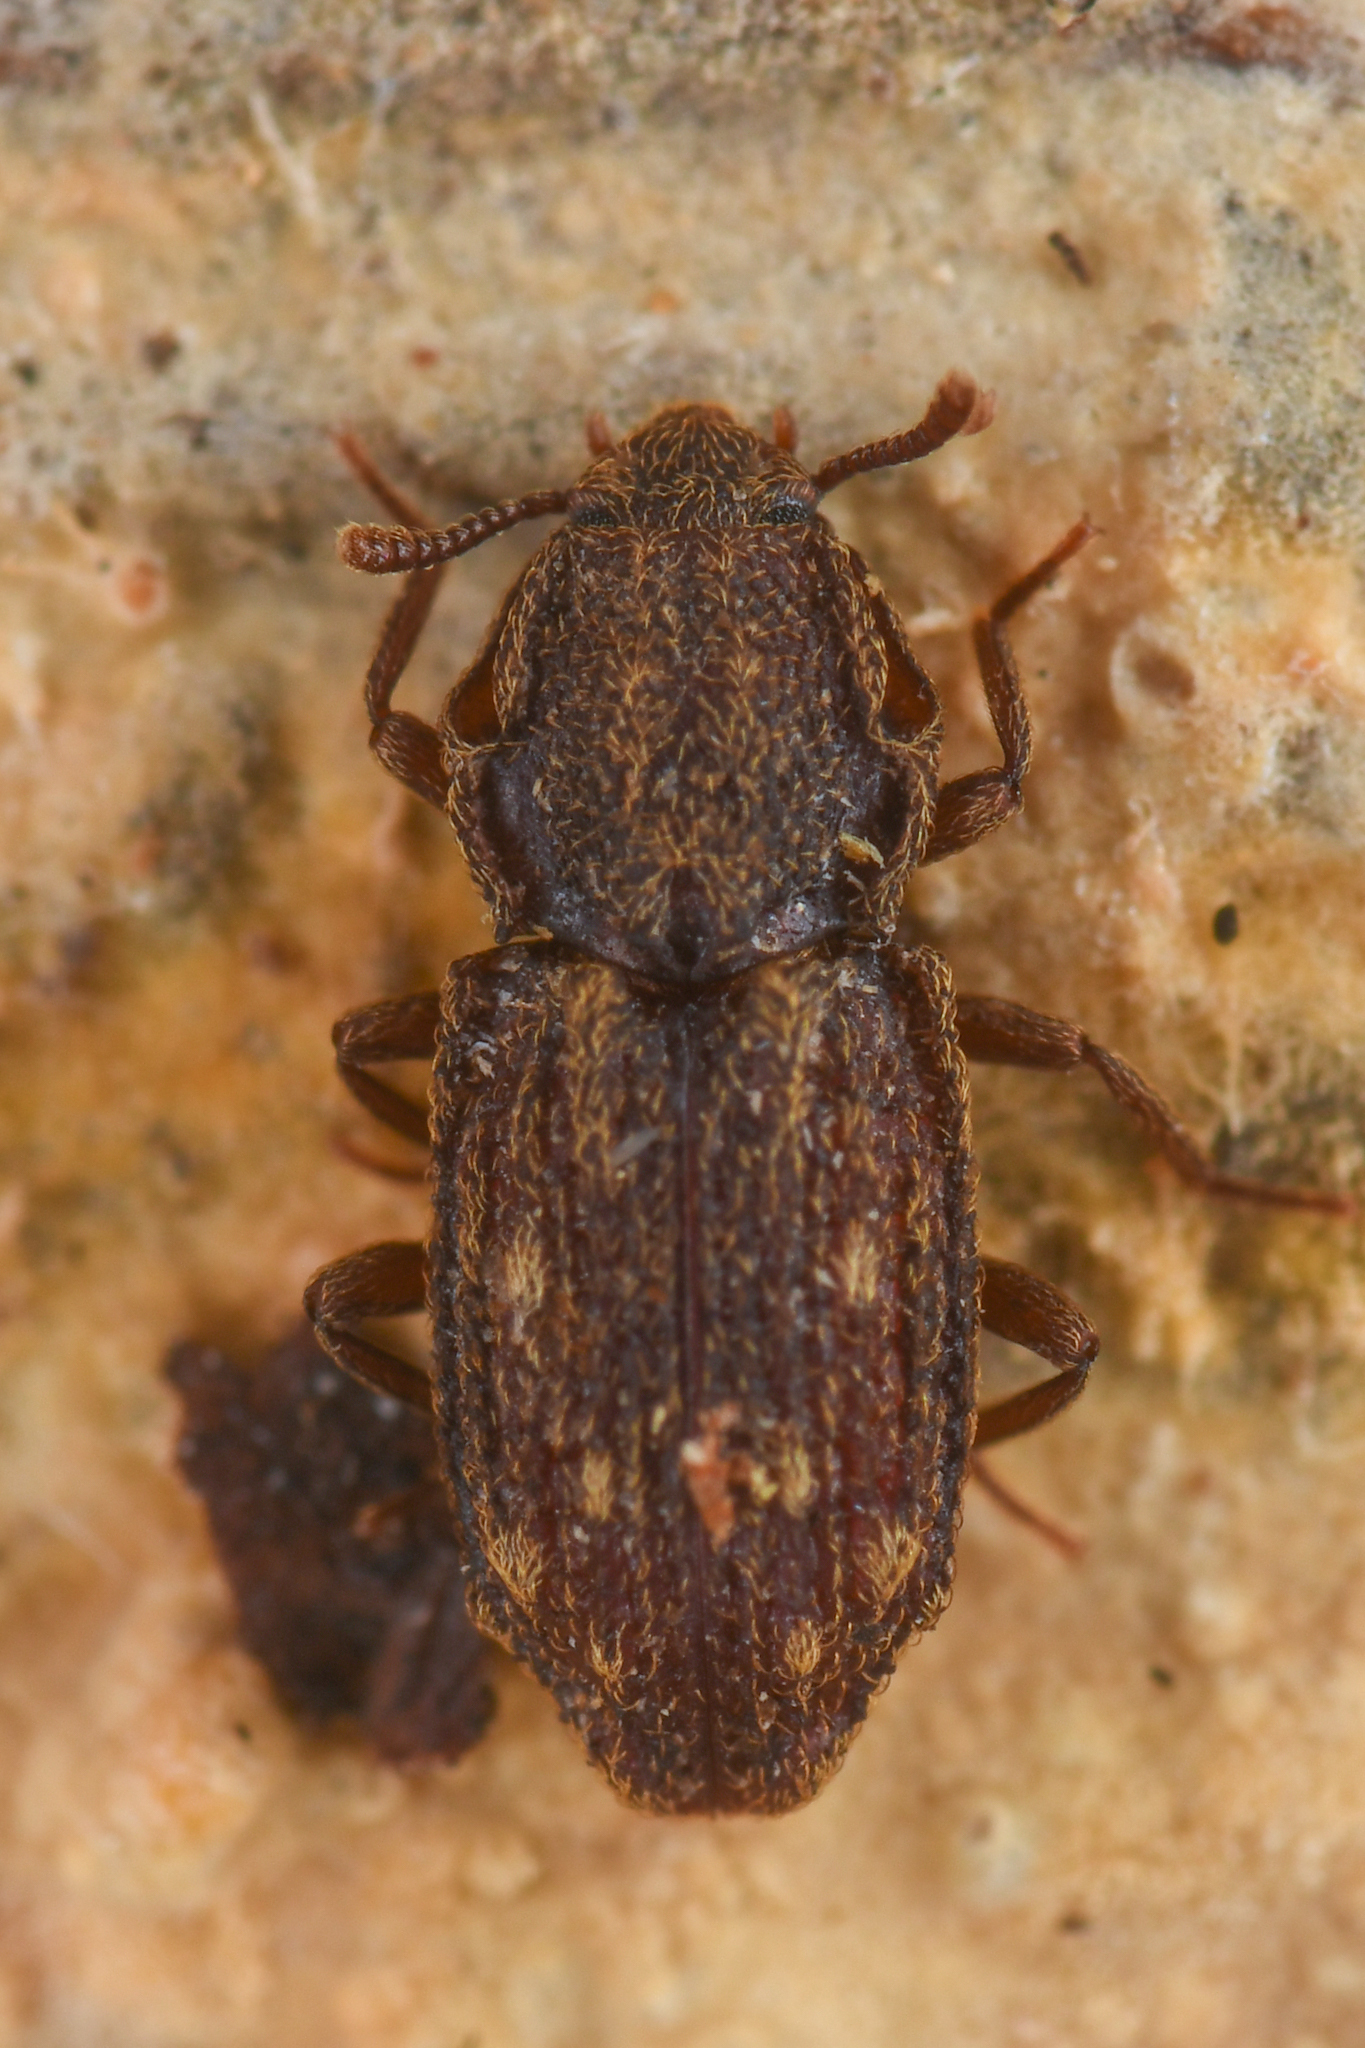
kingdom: Animalia
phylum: Arthropoda
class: Insecta
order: Coleoptera
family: Zopheridae
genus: Usechus
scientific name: Usechus nucleatus
